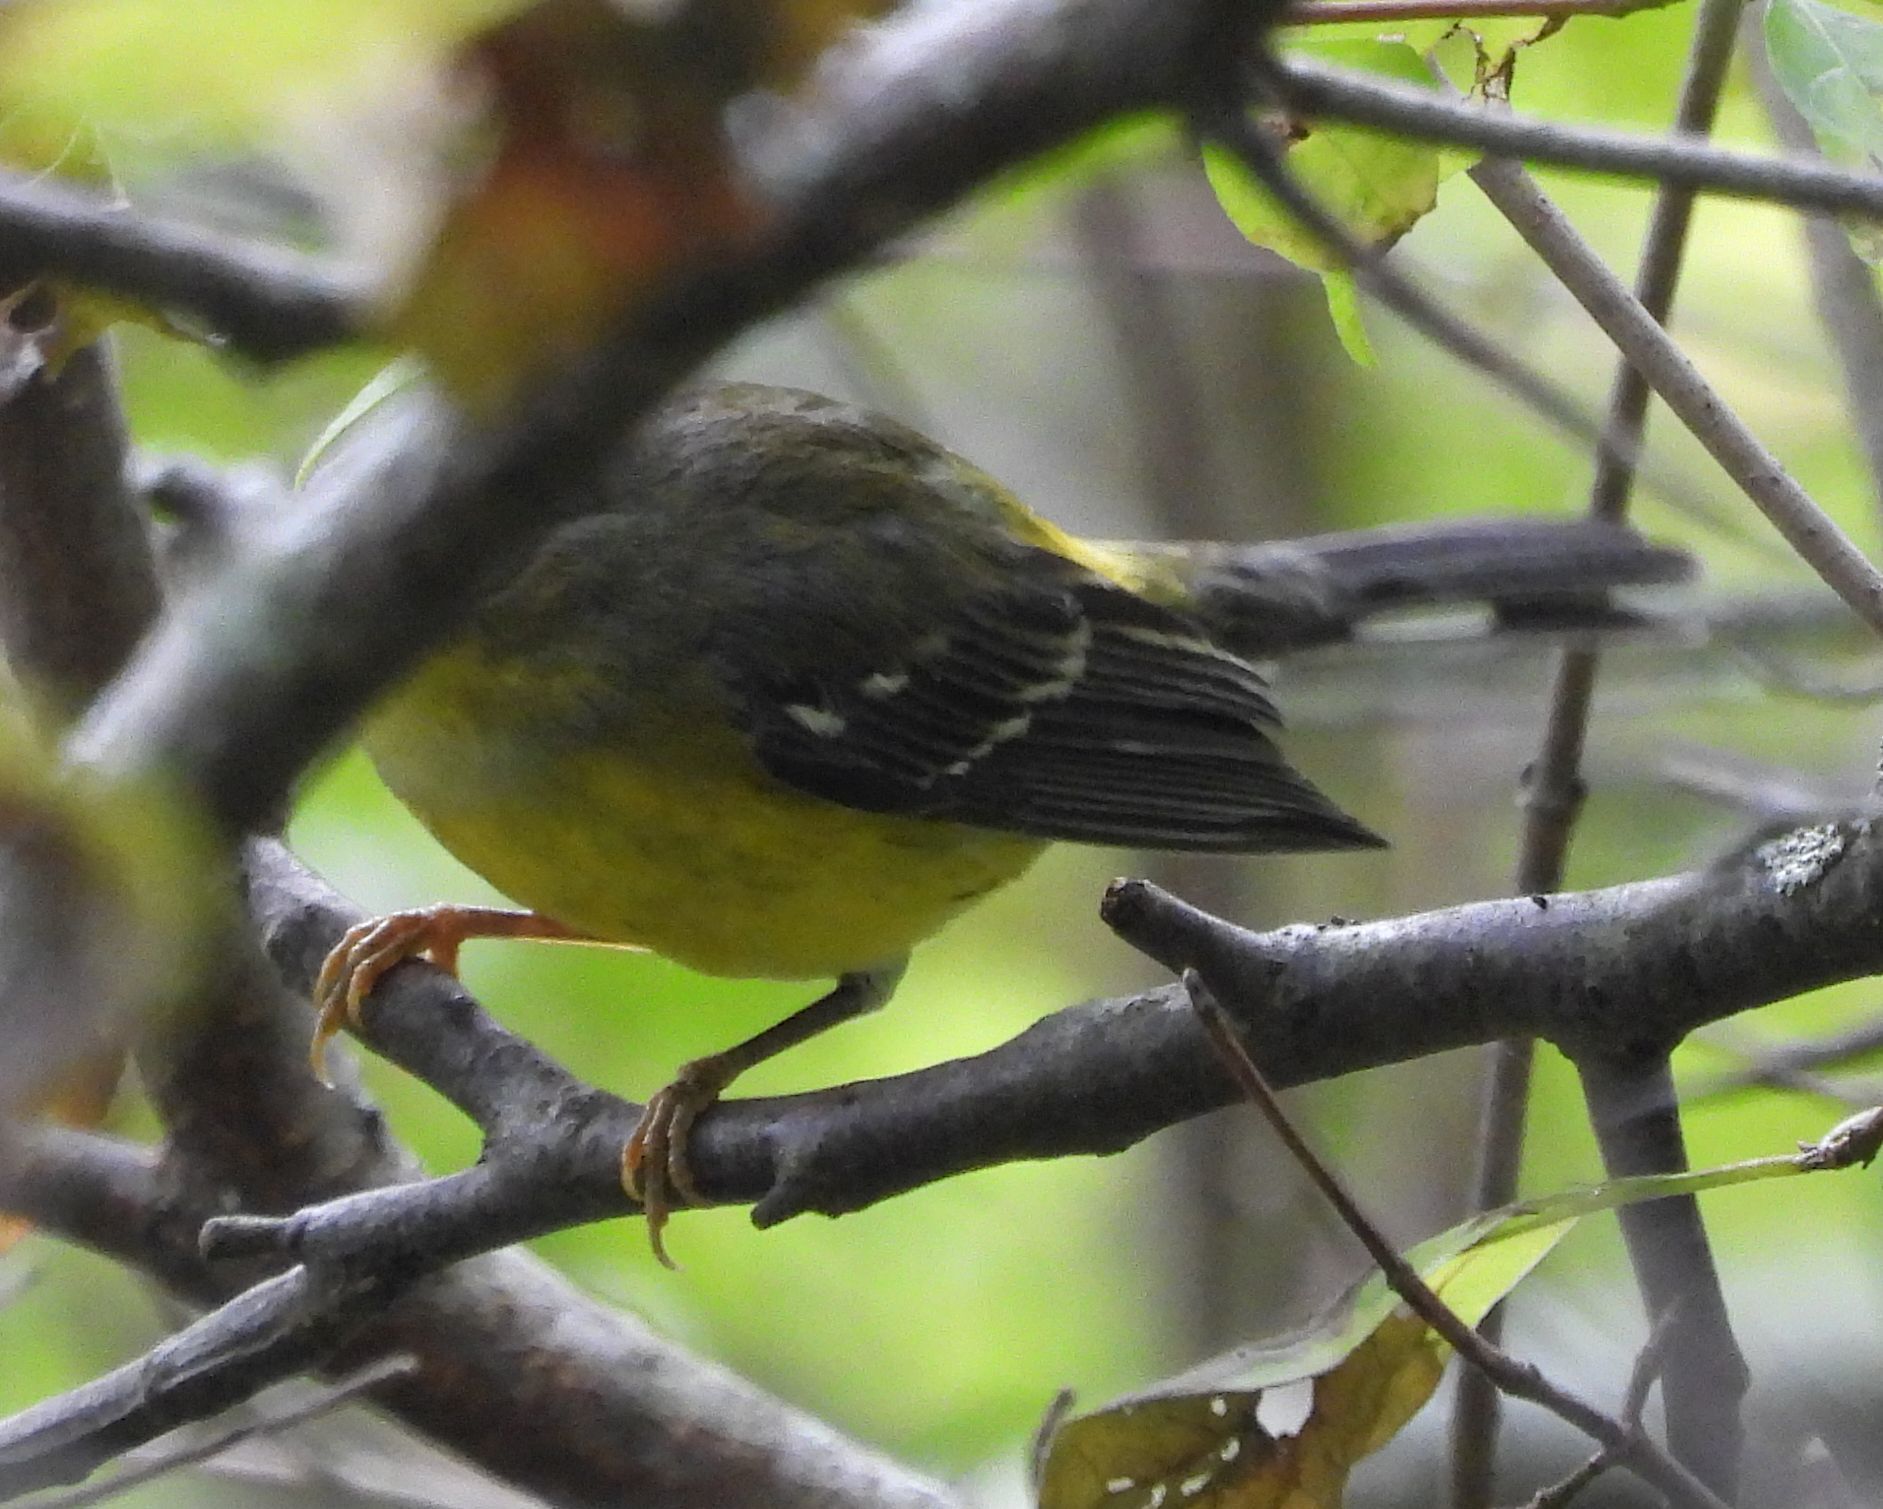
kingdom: Animalia
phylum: Chordata
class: Aves
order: Passeriformes
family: Parulidae
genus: Setophaga
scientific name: Setophaga magnolia
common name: Magnolia warbler
